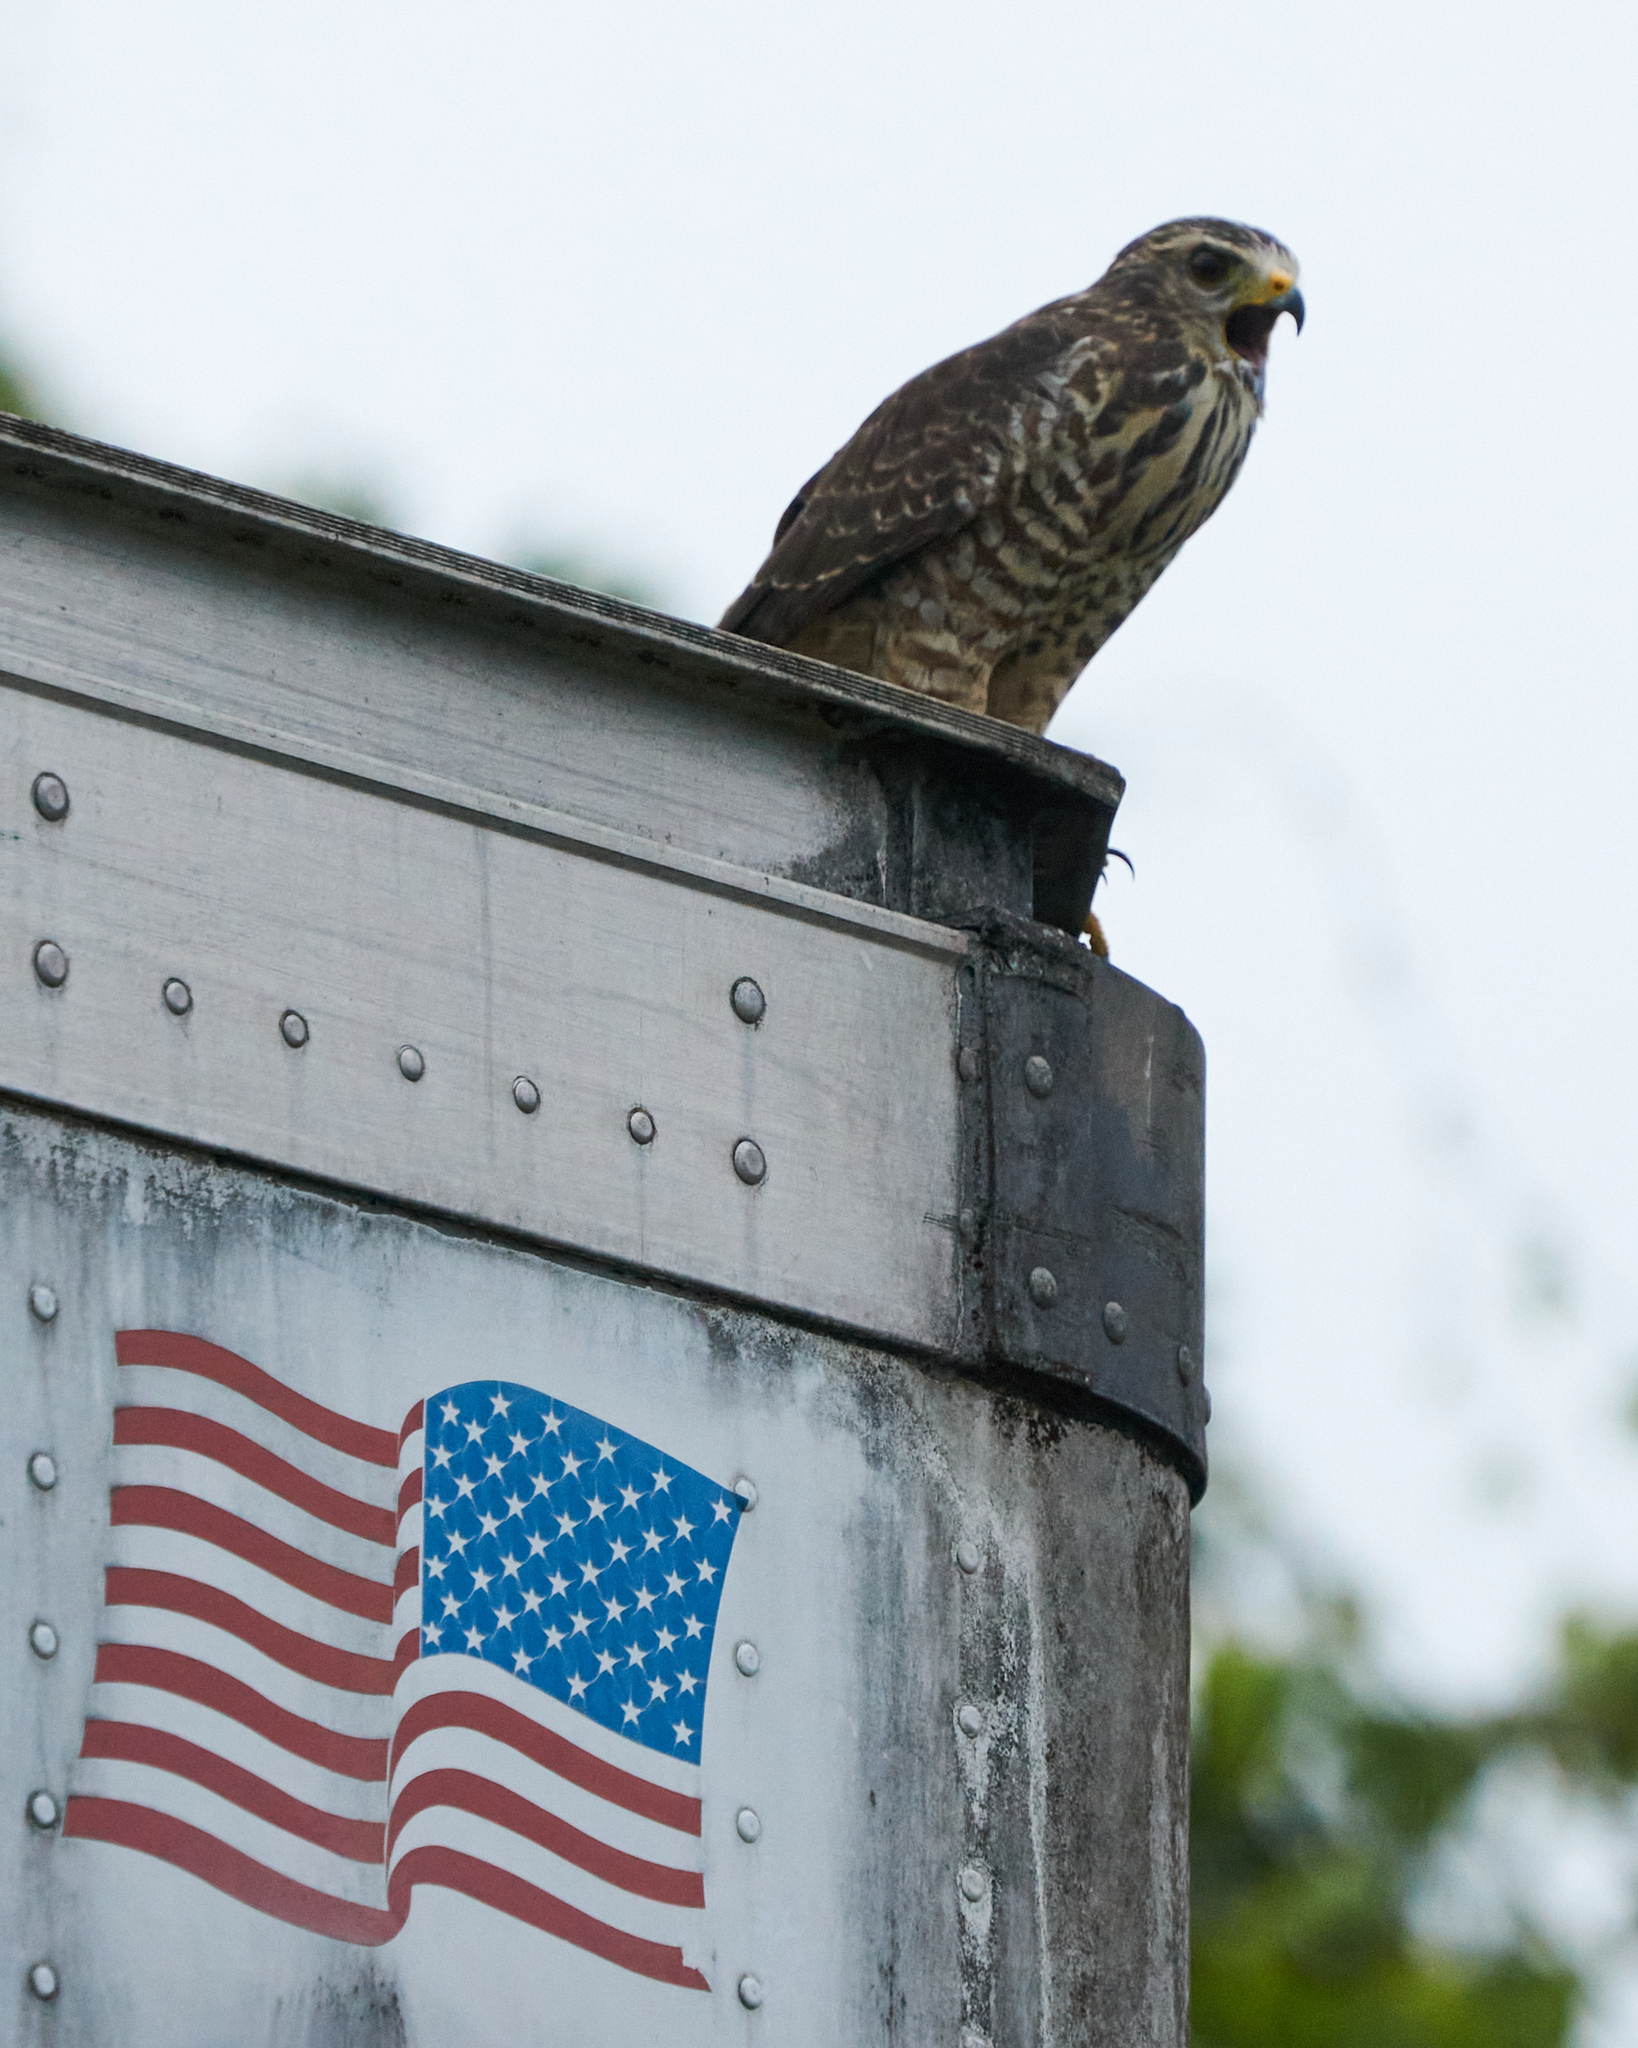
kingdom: Animalia
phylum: Chordata
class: Aves
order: Accipitriformes
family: Accipitridae
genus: Rupornis
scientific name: Rupornis magnirostris
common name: Roadside hawk
